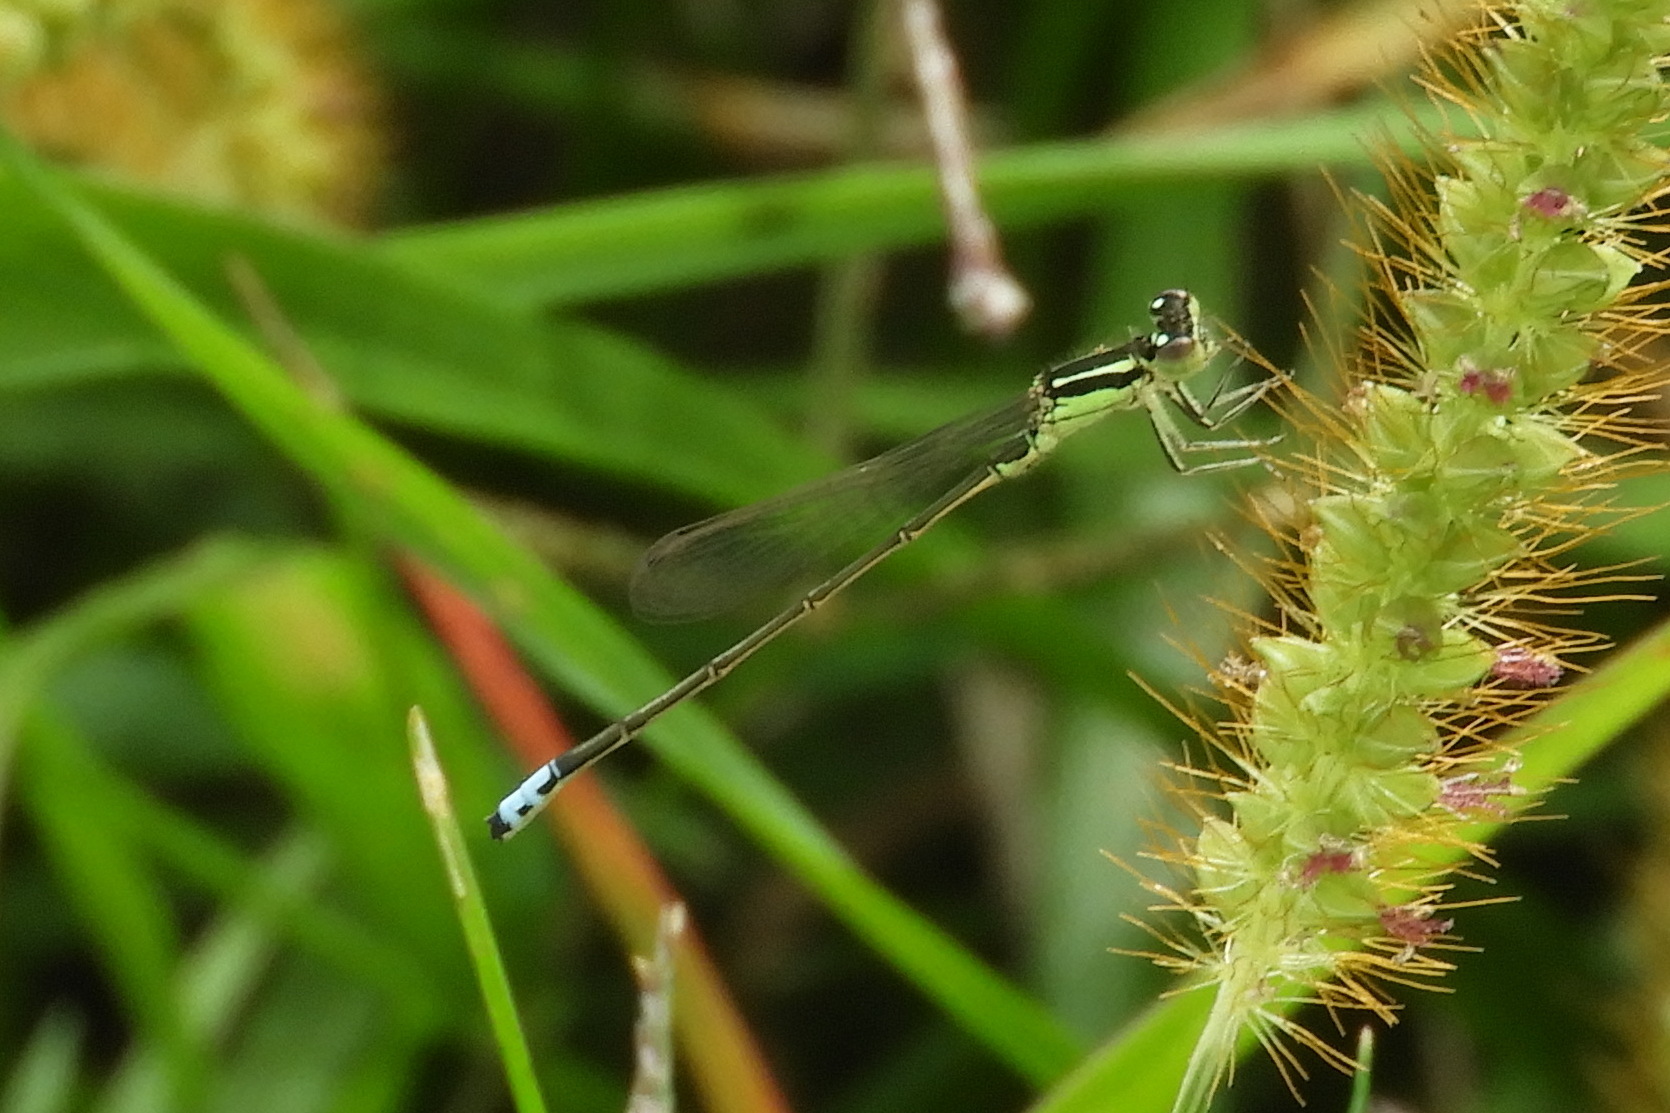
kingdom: Animalia
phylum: Arthropoda
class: Insecta
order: Odonata
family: Coenagrionidae
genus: Ischnura
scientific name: Ischnura verticalis
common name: Eastern forktail
